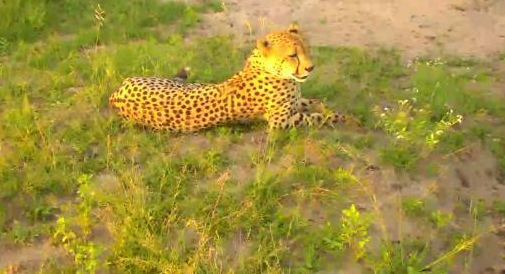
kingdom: Animalia
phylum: Chordata
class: Mammalia
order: Carnivora
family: Felidae
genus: Acinonyx
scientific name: Acinonyx jubatus
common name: Cheetah
